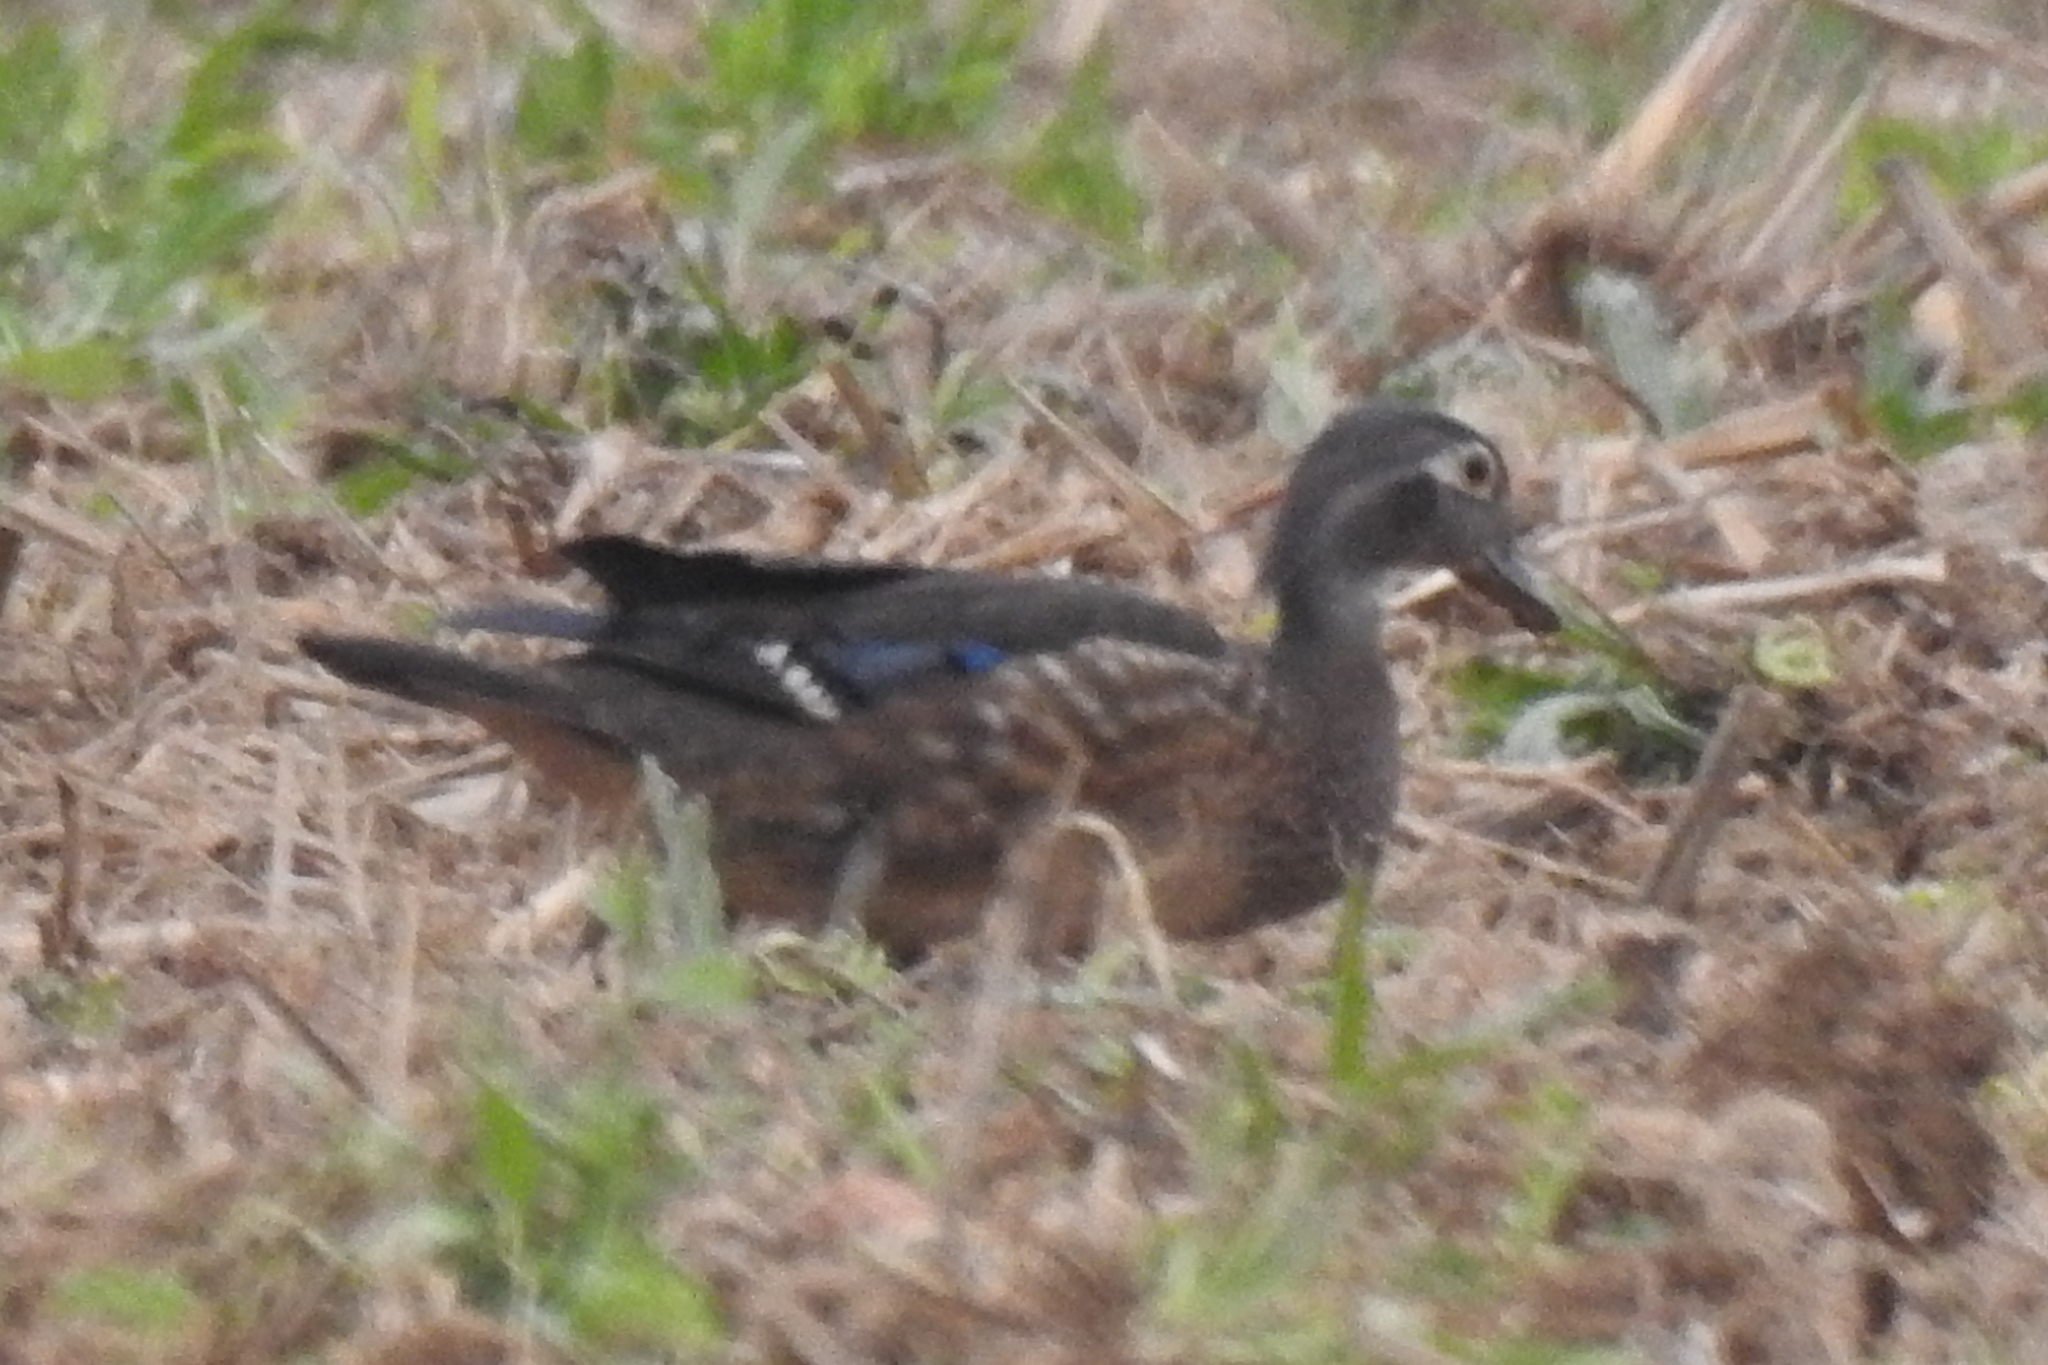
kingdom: Animalia
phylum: Chordata
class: Aves
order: Anseriformes
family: Anatidae
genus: Aix
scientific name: Aix sponsa
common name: Wood duck
